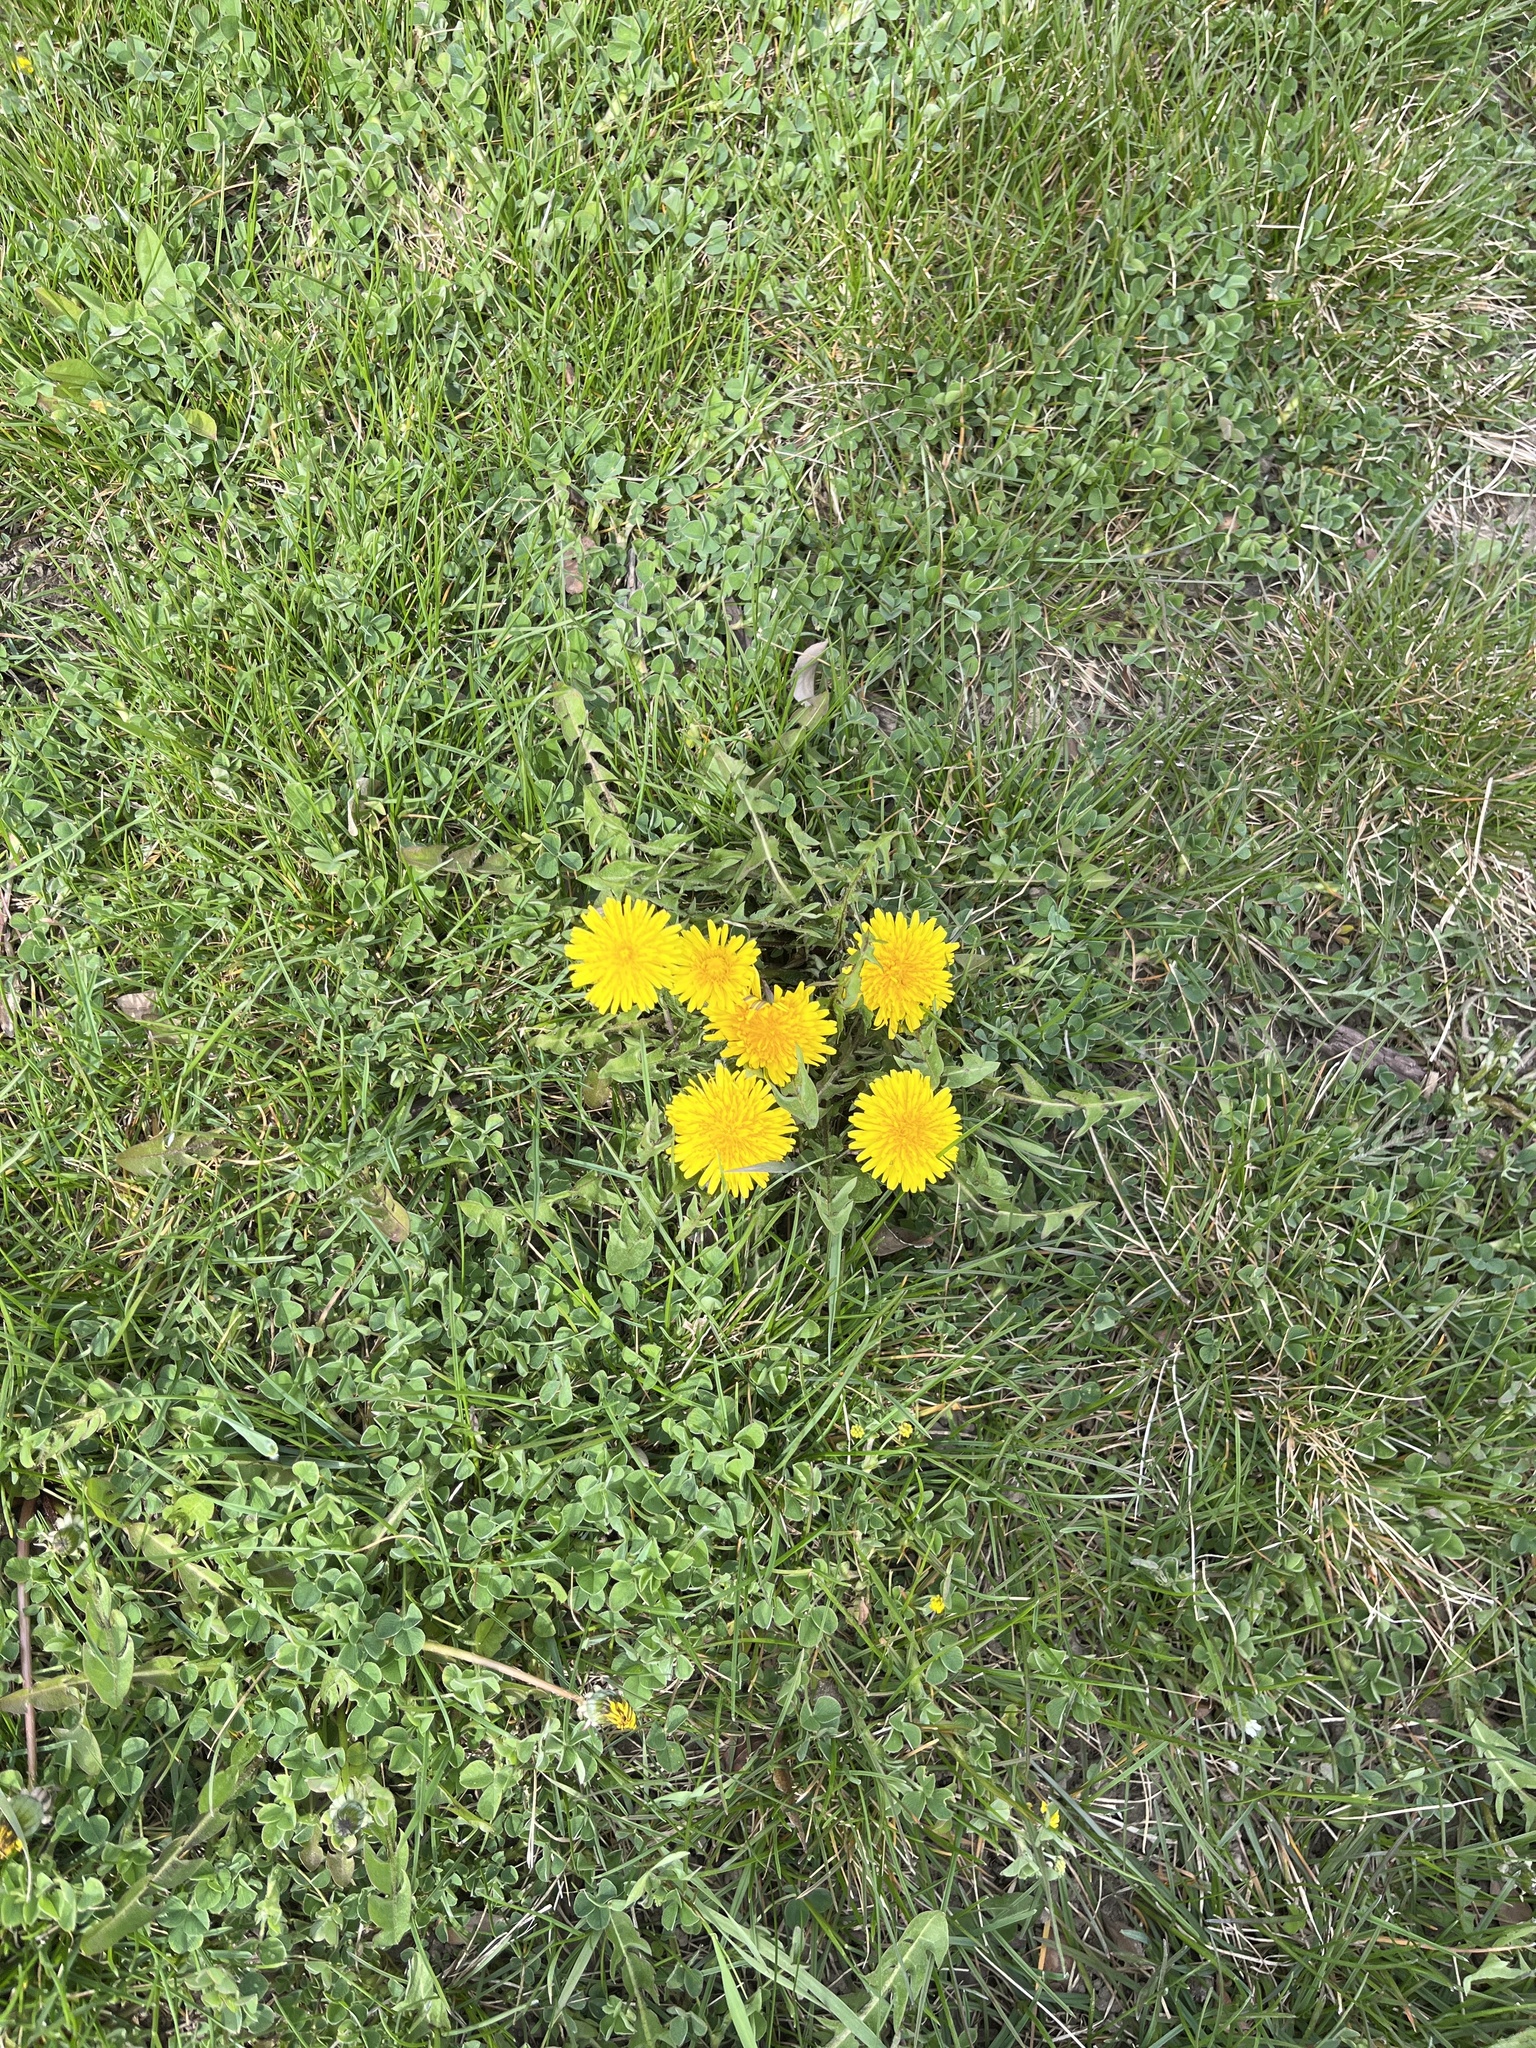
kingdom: Plantae
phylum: Tracheophyta
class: Magnoliopsida
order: Asterales
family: Asteraceae
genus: Taraxacum
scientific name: Taraxacum officinale
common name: Common dandelion
